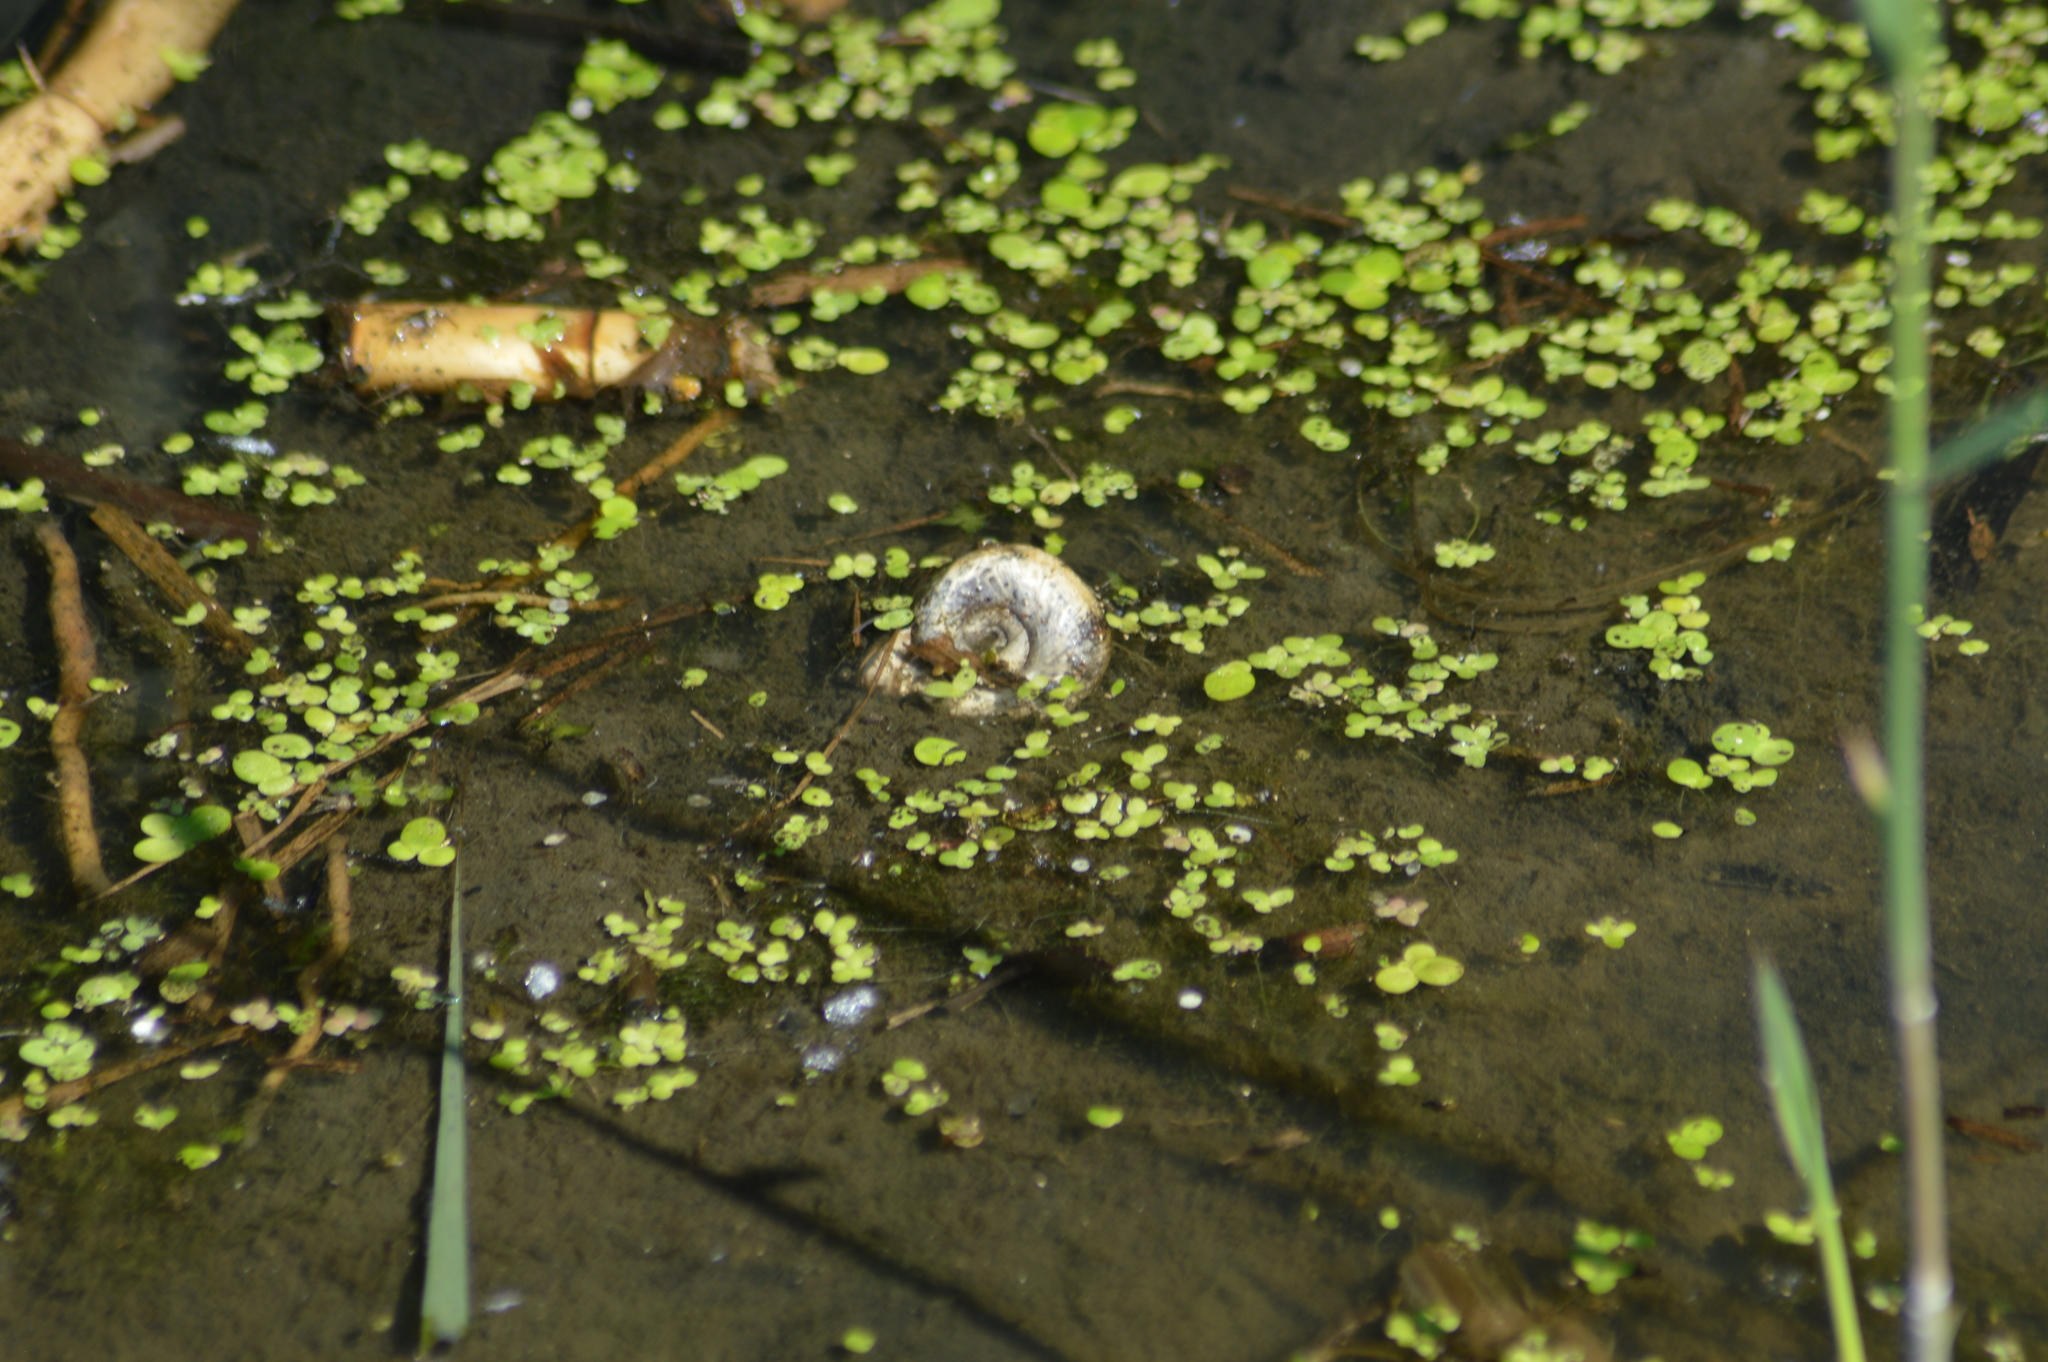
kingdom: Animalia
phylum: Mollusca
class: Gastropoda
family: Planorbidae
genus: Planorbarius
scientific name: Planorbarius corneus
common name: Great ramshorn
